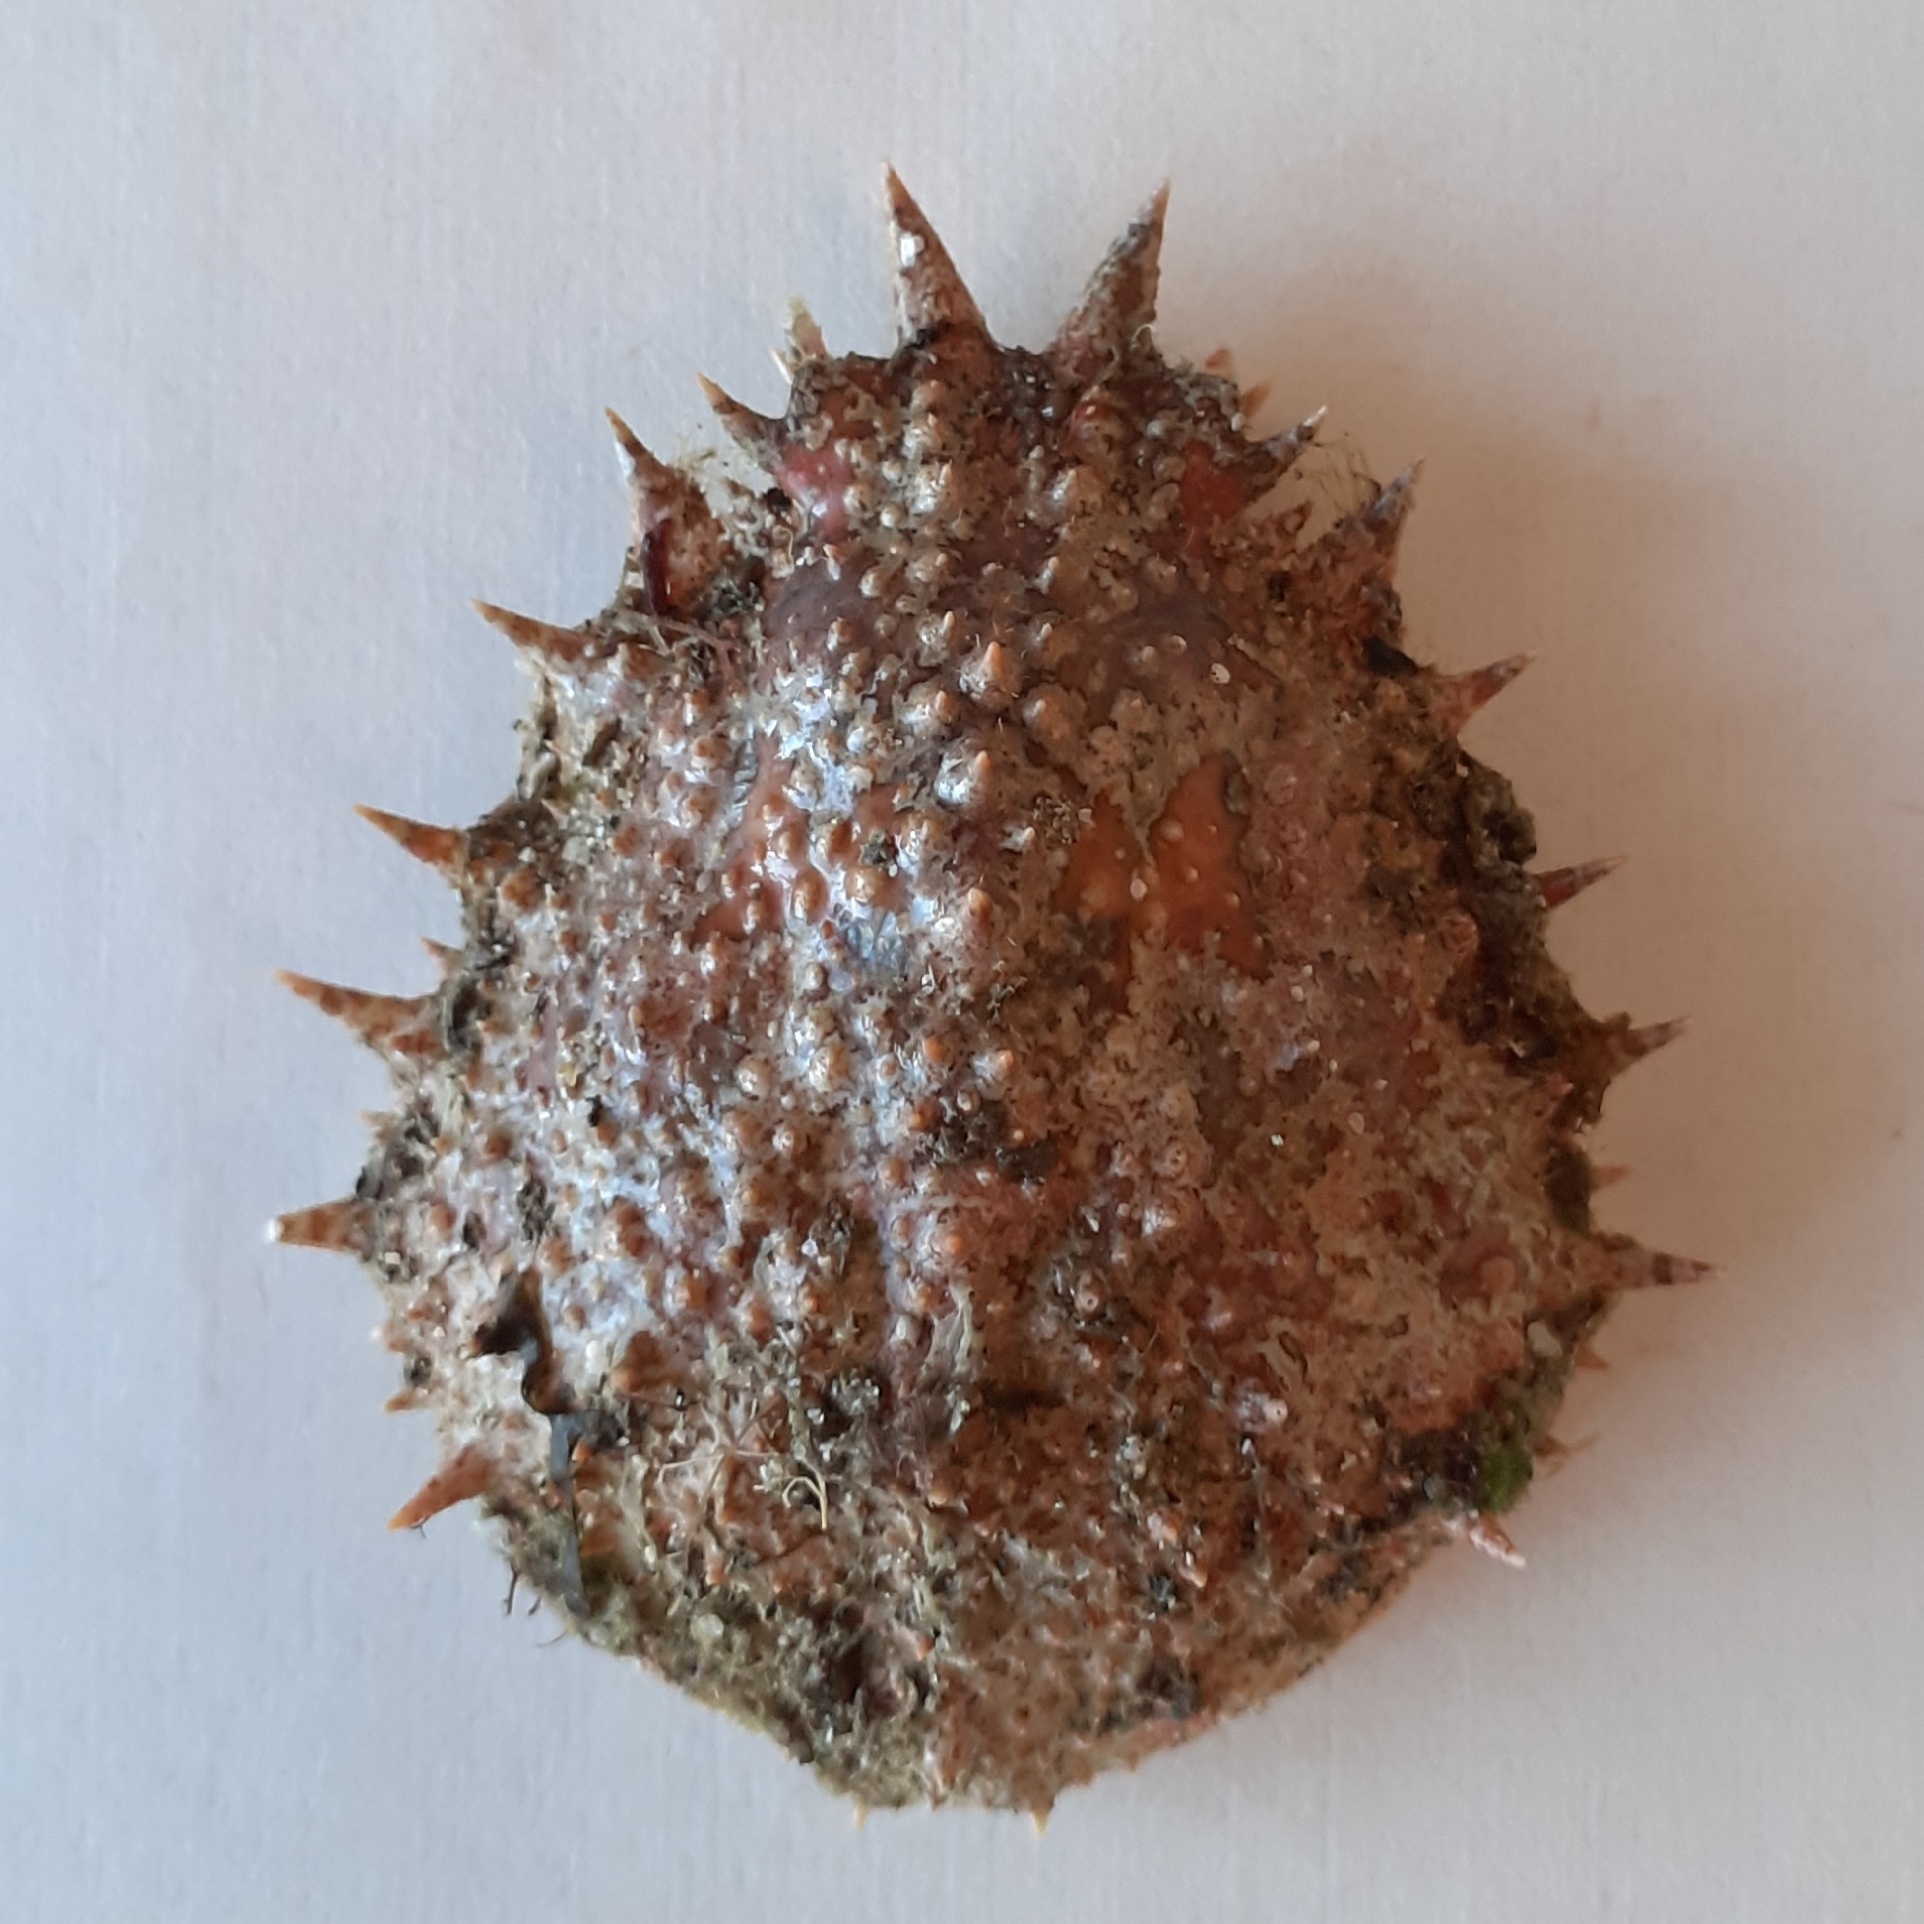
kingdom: Animalia
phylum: Arthropoda
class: Malacostraca
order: Decapoda
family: Majidae
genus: Maja
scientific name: Maja brachydactyla
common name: Common spider crab
